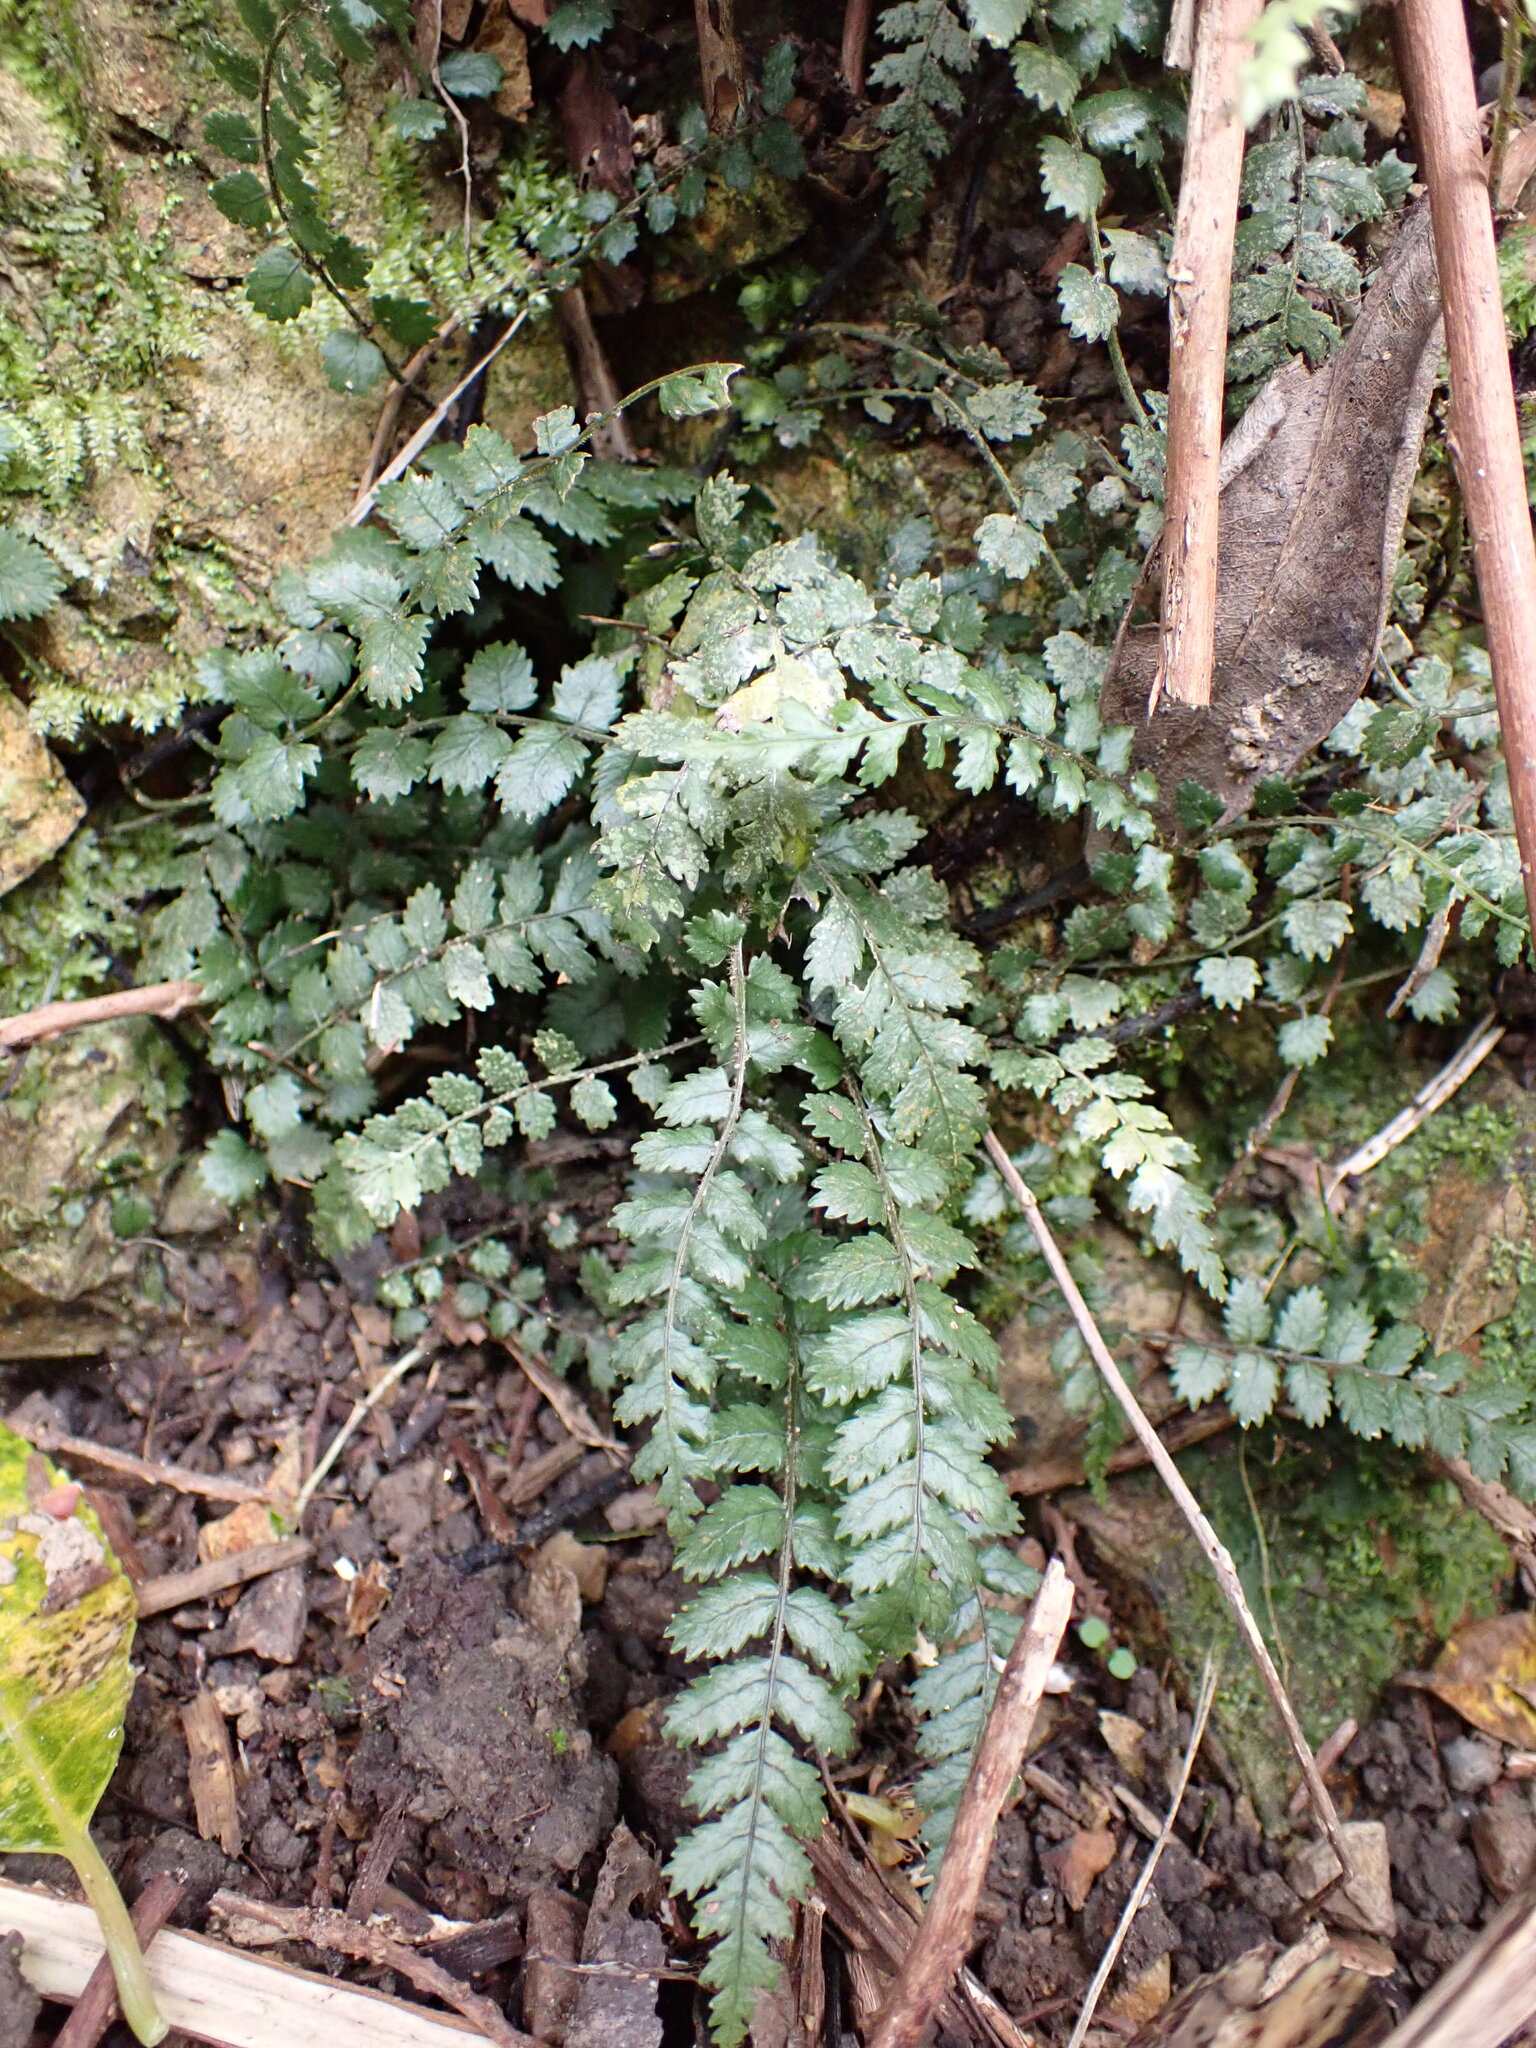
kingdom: Plantae
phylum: Tracheophyta
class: Polypodiopsida
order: Polypodiales
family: Blechnaceae
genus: Icarus
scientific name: Icarus filiformis
